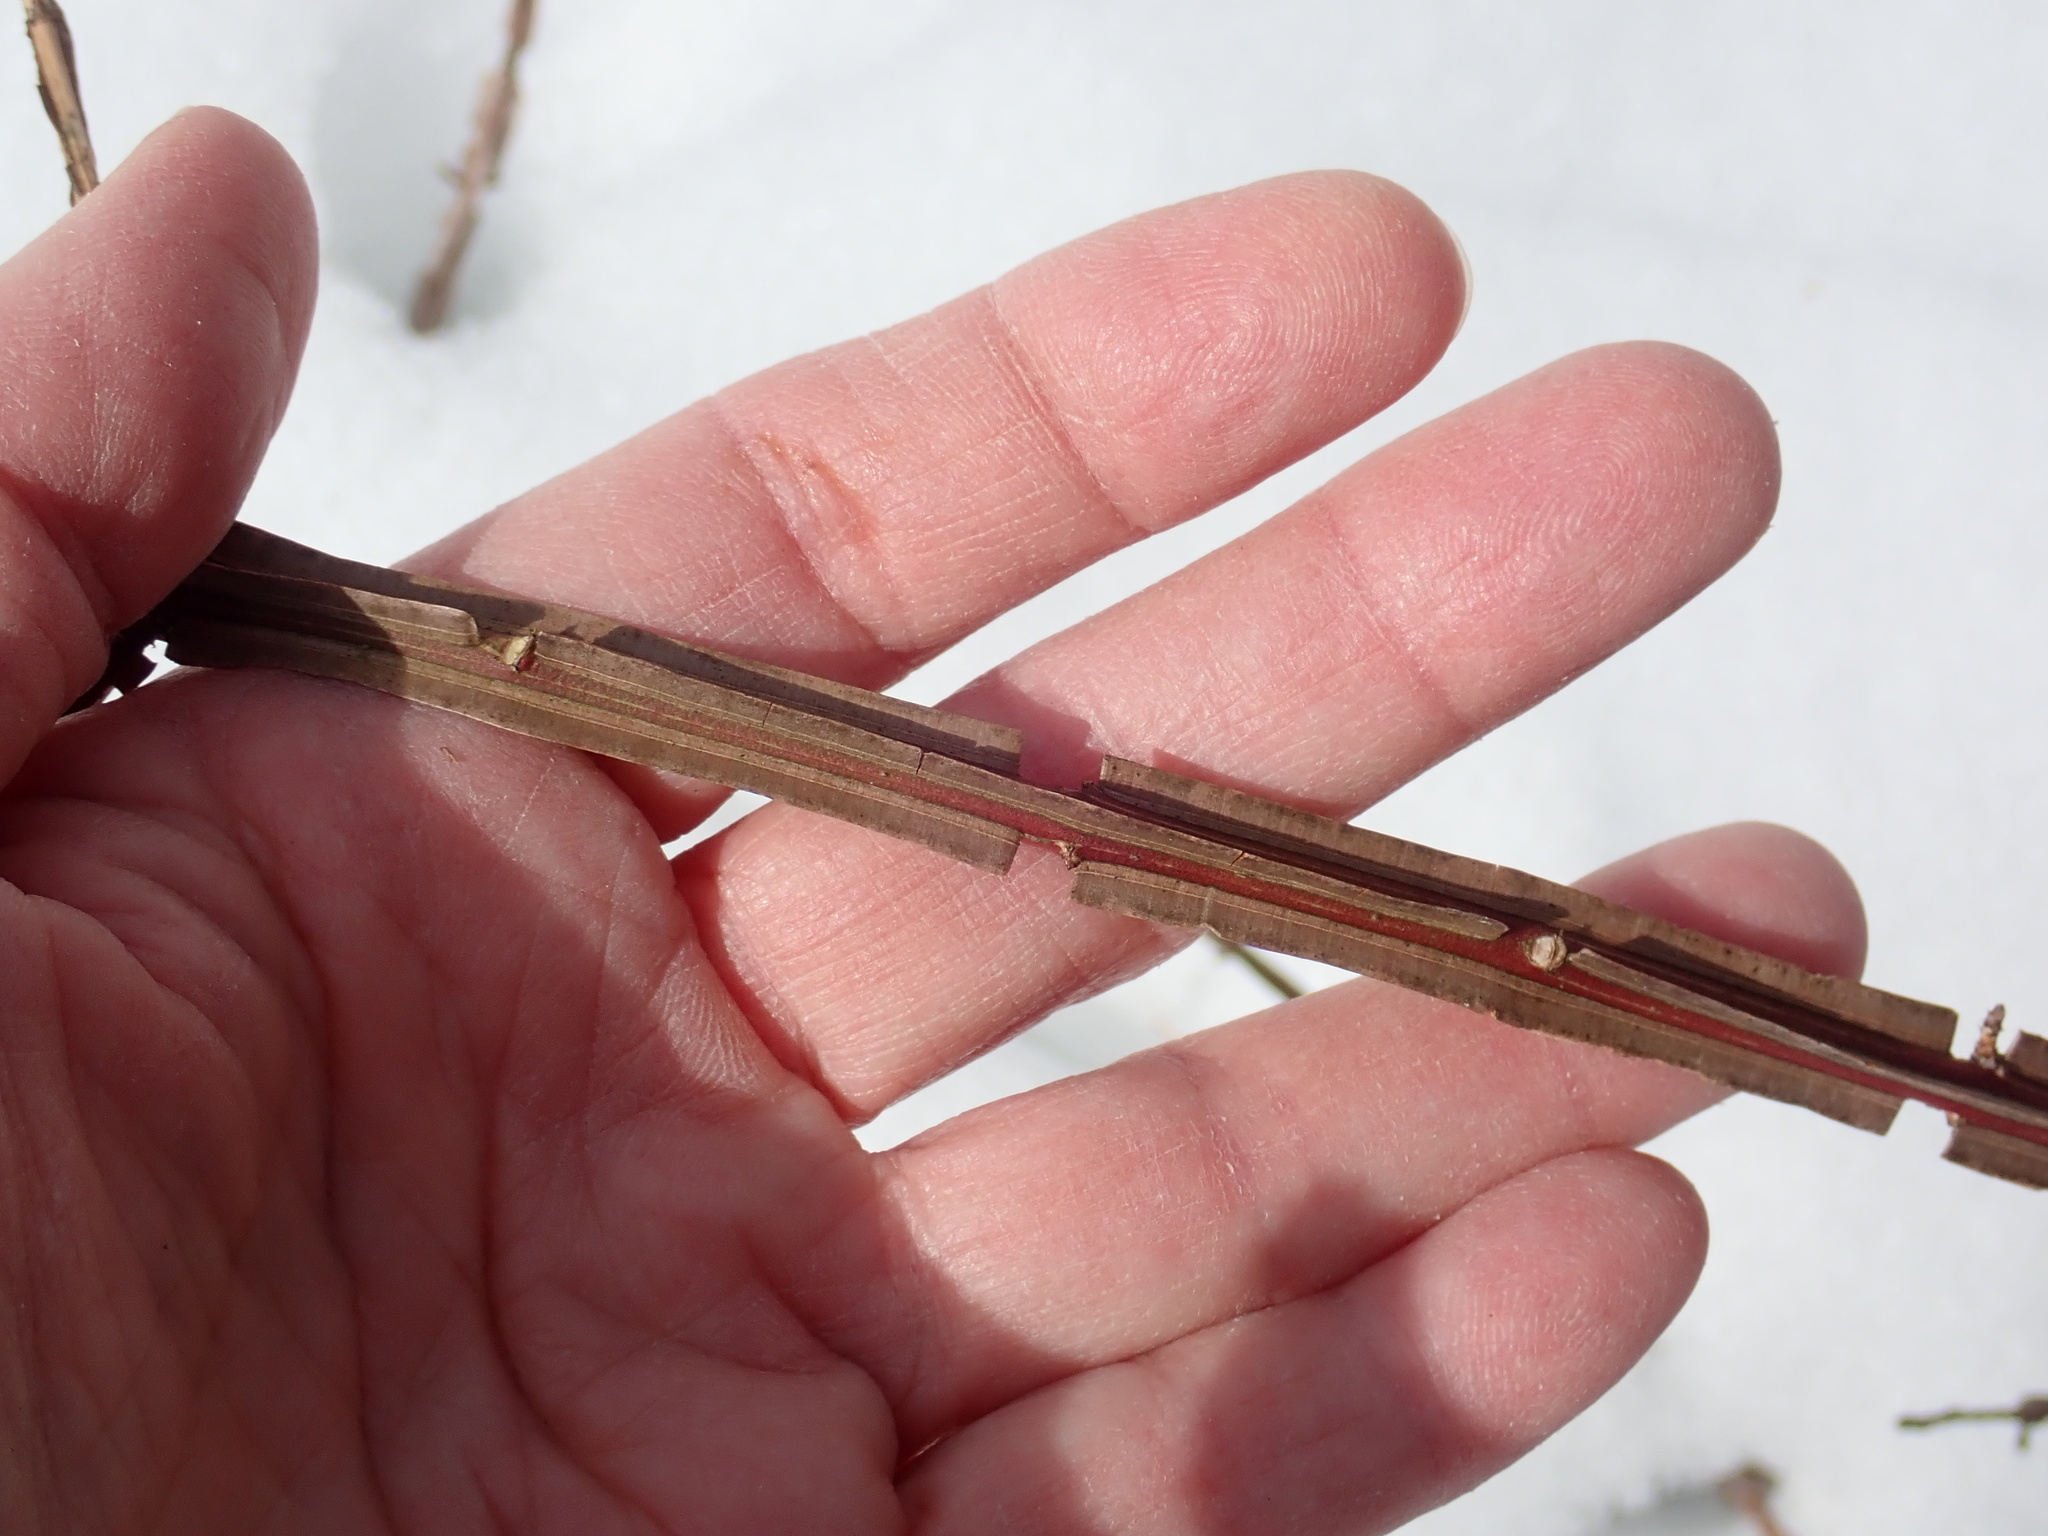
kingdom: Plantae
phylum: Tracheophyta
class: Magnoliopsida
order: Celastrales
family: Celastraceae
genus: Euonymus
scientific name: Euonymus alatus
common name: Winged euonymus
